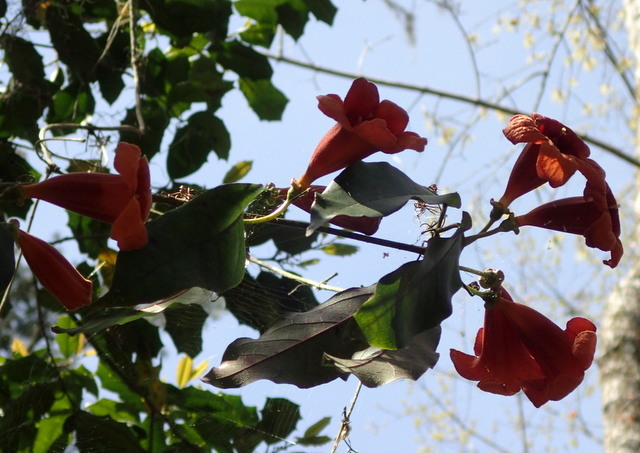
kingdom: Plantae
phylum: Tracheophyta
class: Magnoliopsida
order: Lamiales
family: Bignoniaceae
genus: Bignonia
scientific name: Bignonia capreolata
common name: Crossvine
